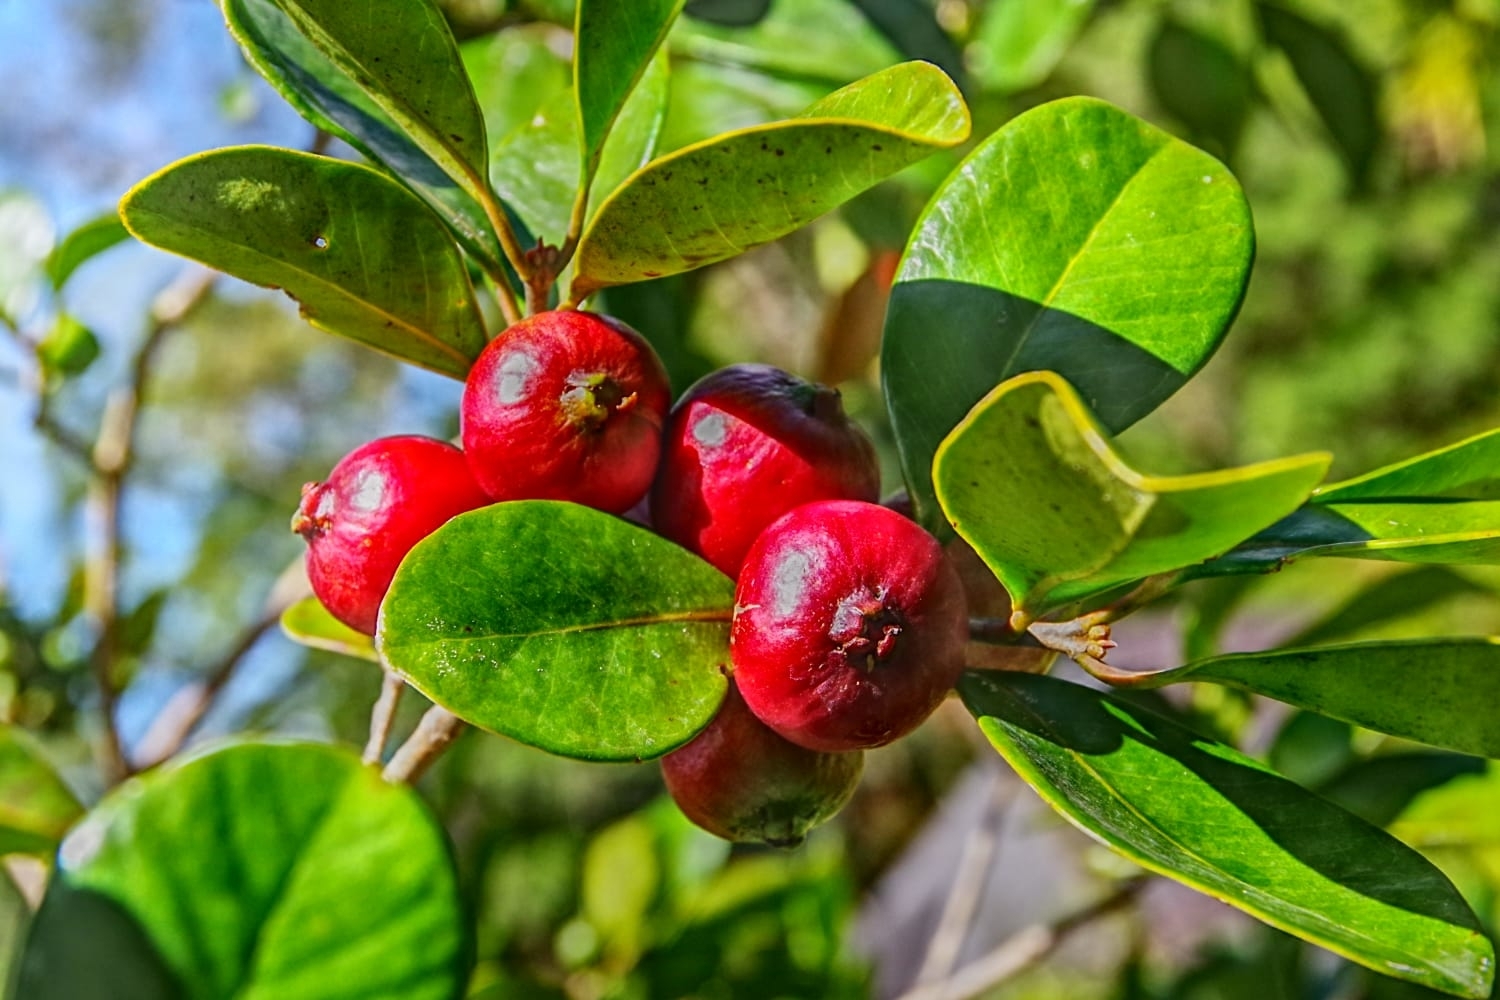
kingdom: Plantae
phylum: Tracheophyta
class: Magnoliopsida
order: Myrtales
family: Myrtaceae
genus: Psidium
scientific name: Psidium cattleianum
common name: Strawberry guava
